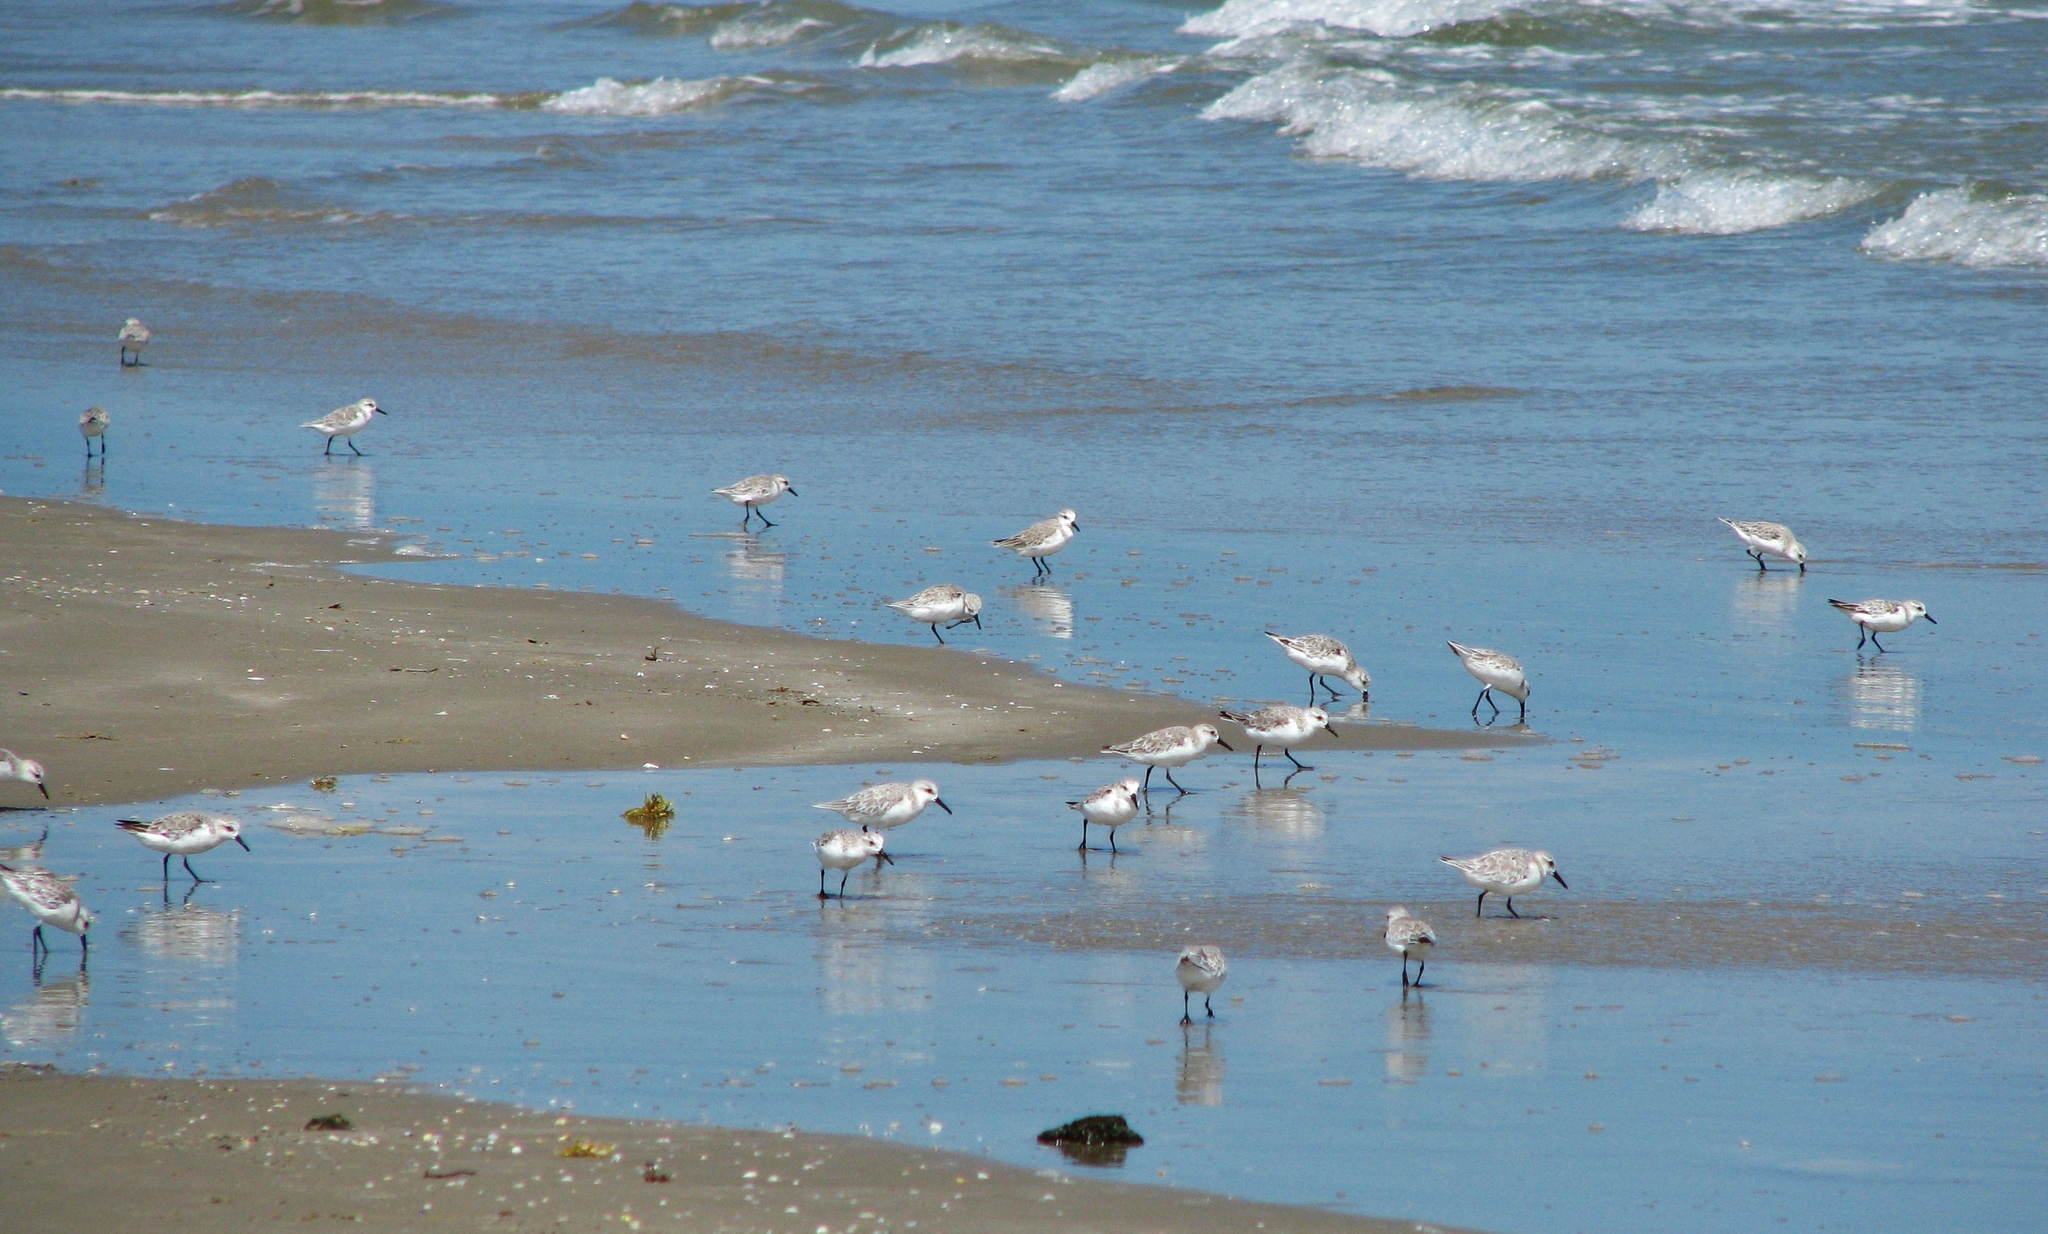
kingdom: Animalia
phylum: Chordata
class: Aves
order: Charadriiformes
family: Scolopacidae
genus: Calidris
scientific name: Calidris alba
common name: Sanderling
